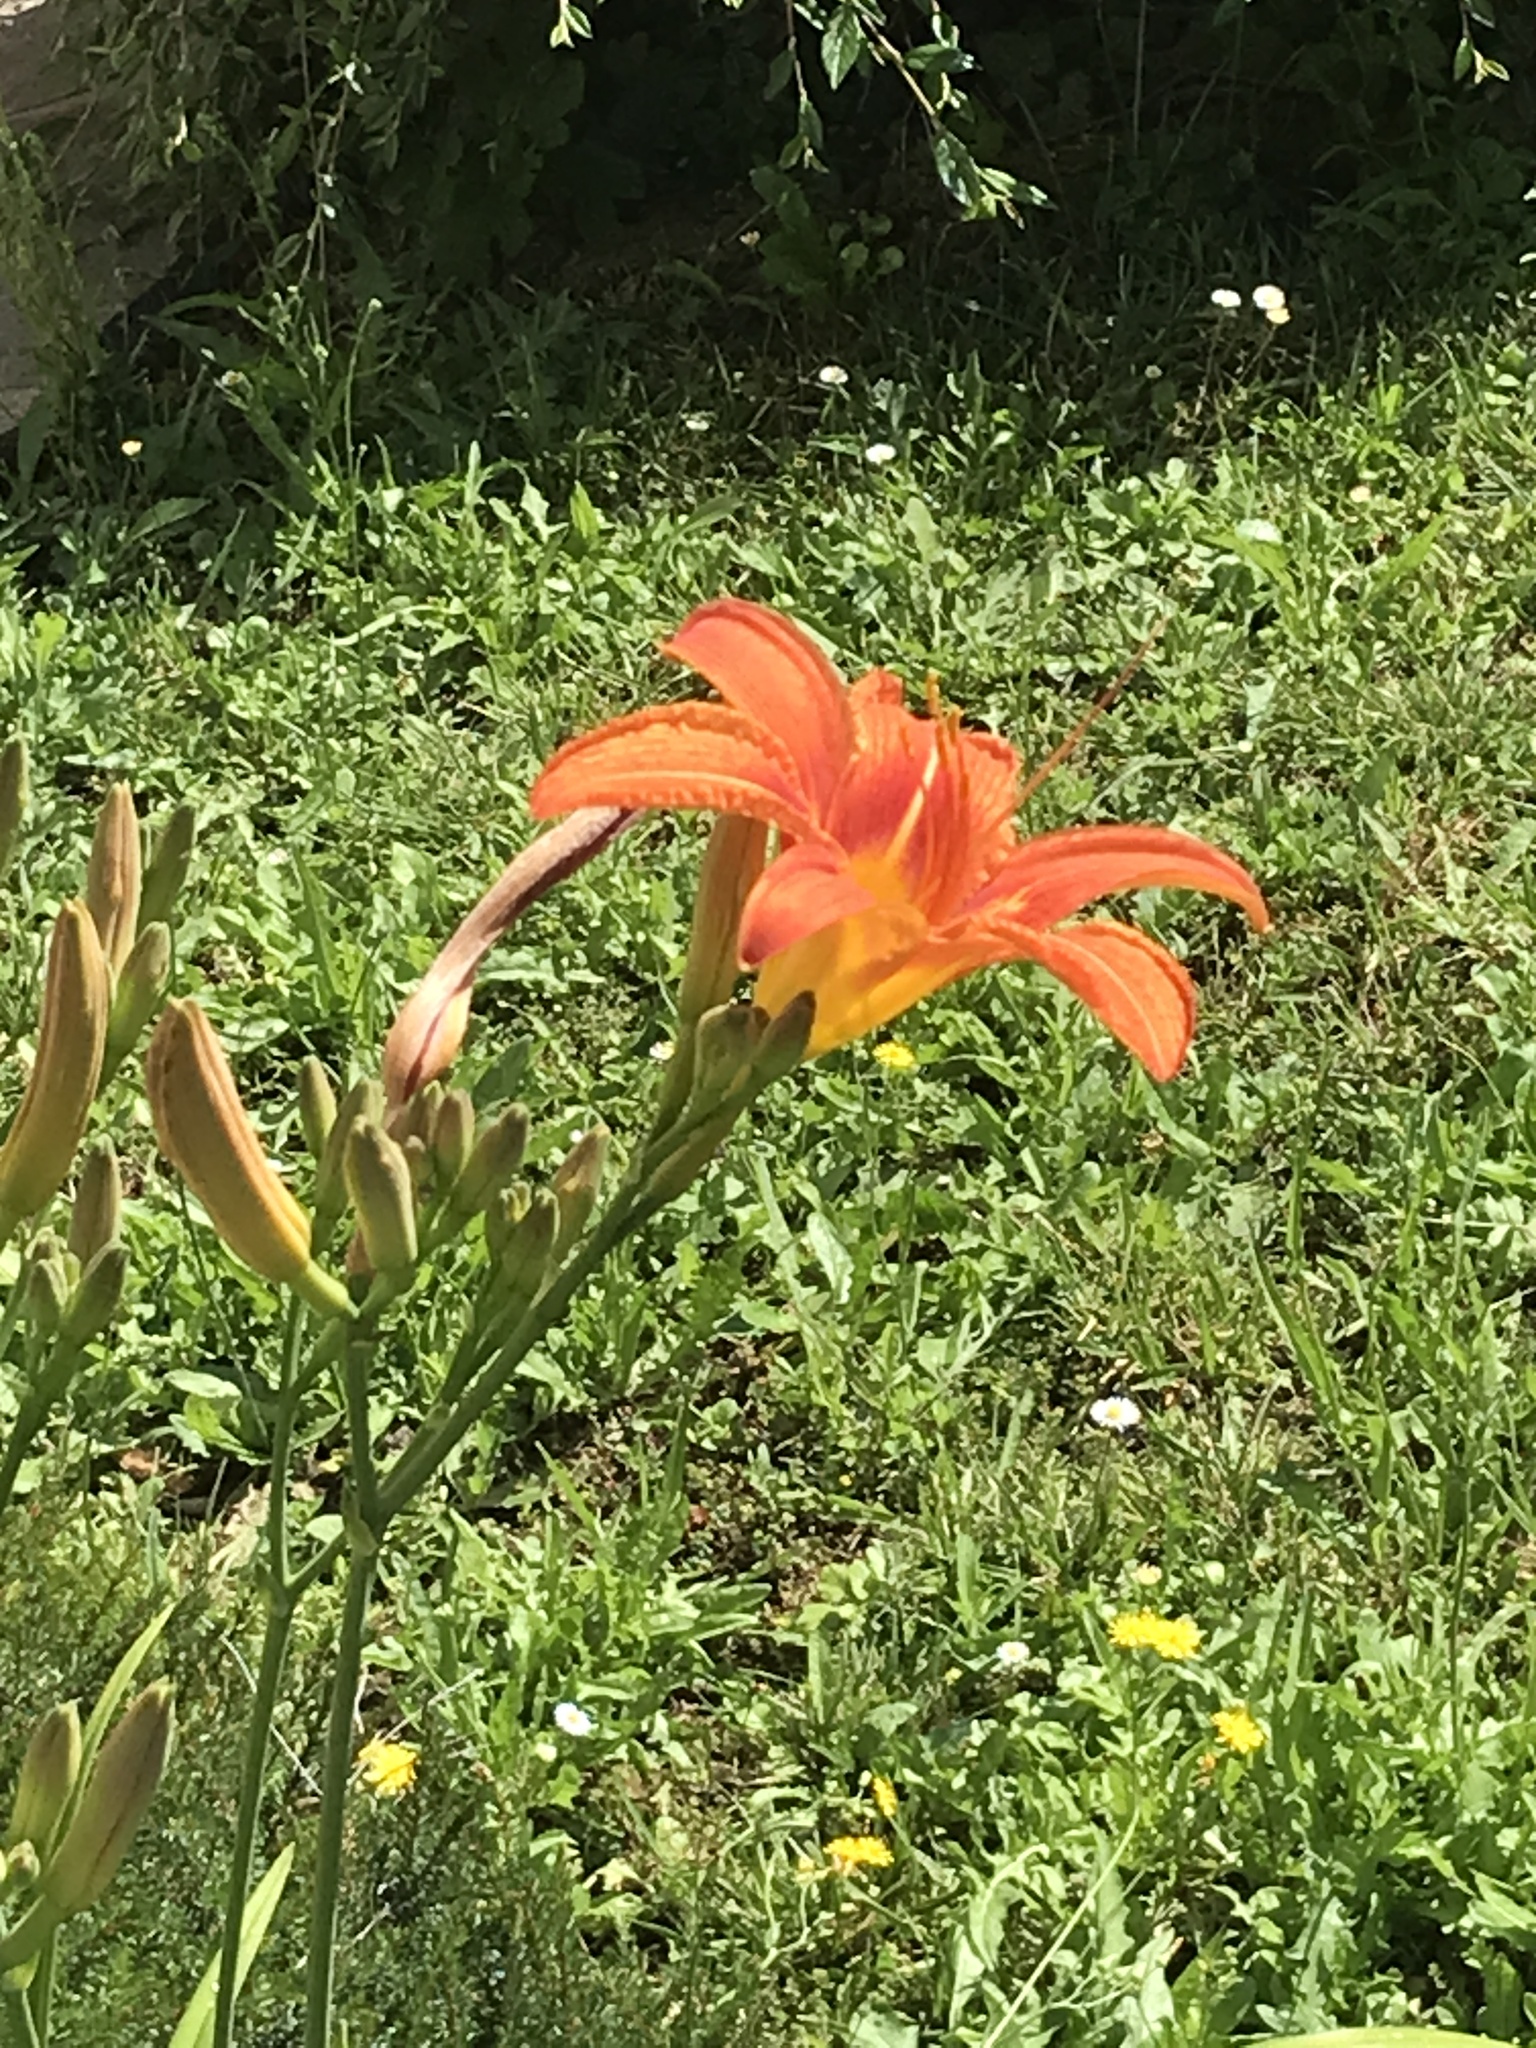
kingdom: Plantae
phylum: Tracheophyta
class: Liliopsida
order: Asparagales
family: Asphodelaceae
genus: Hemerocallis
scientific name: Hemerocallis fulva
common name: Orange day-lily
